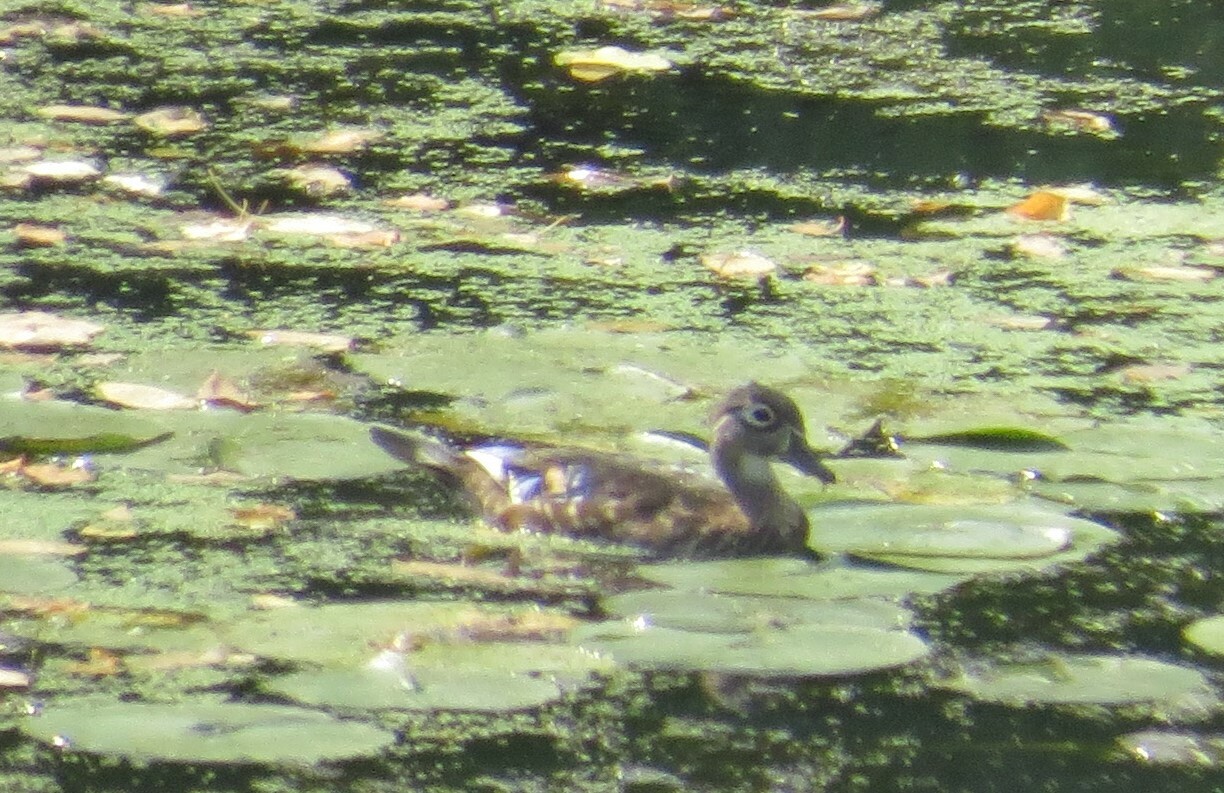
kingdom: Animalia
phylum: Chordata
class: Aves
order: Anseriformes
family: Anatidae
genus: Aix
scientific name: Aix sponsa
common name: Wood duck
